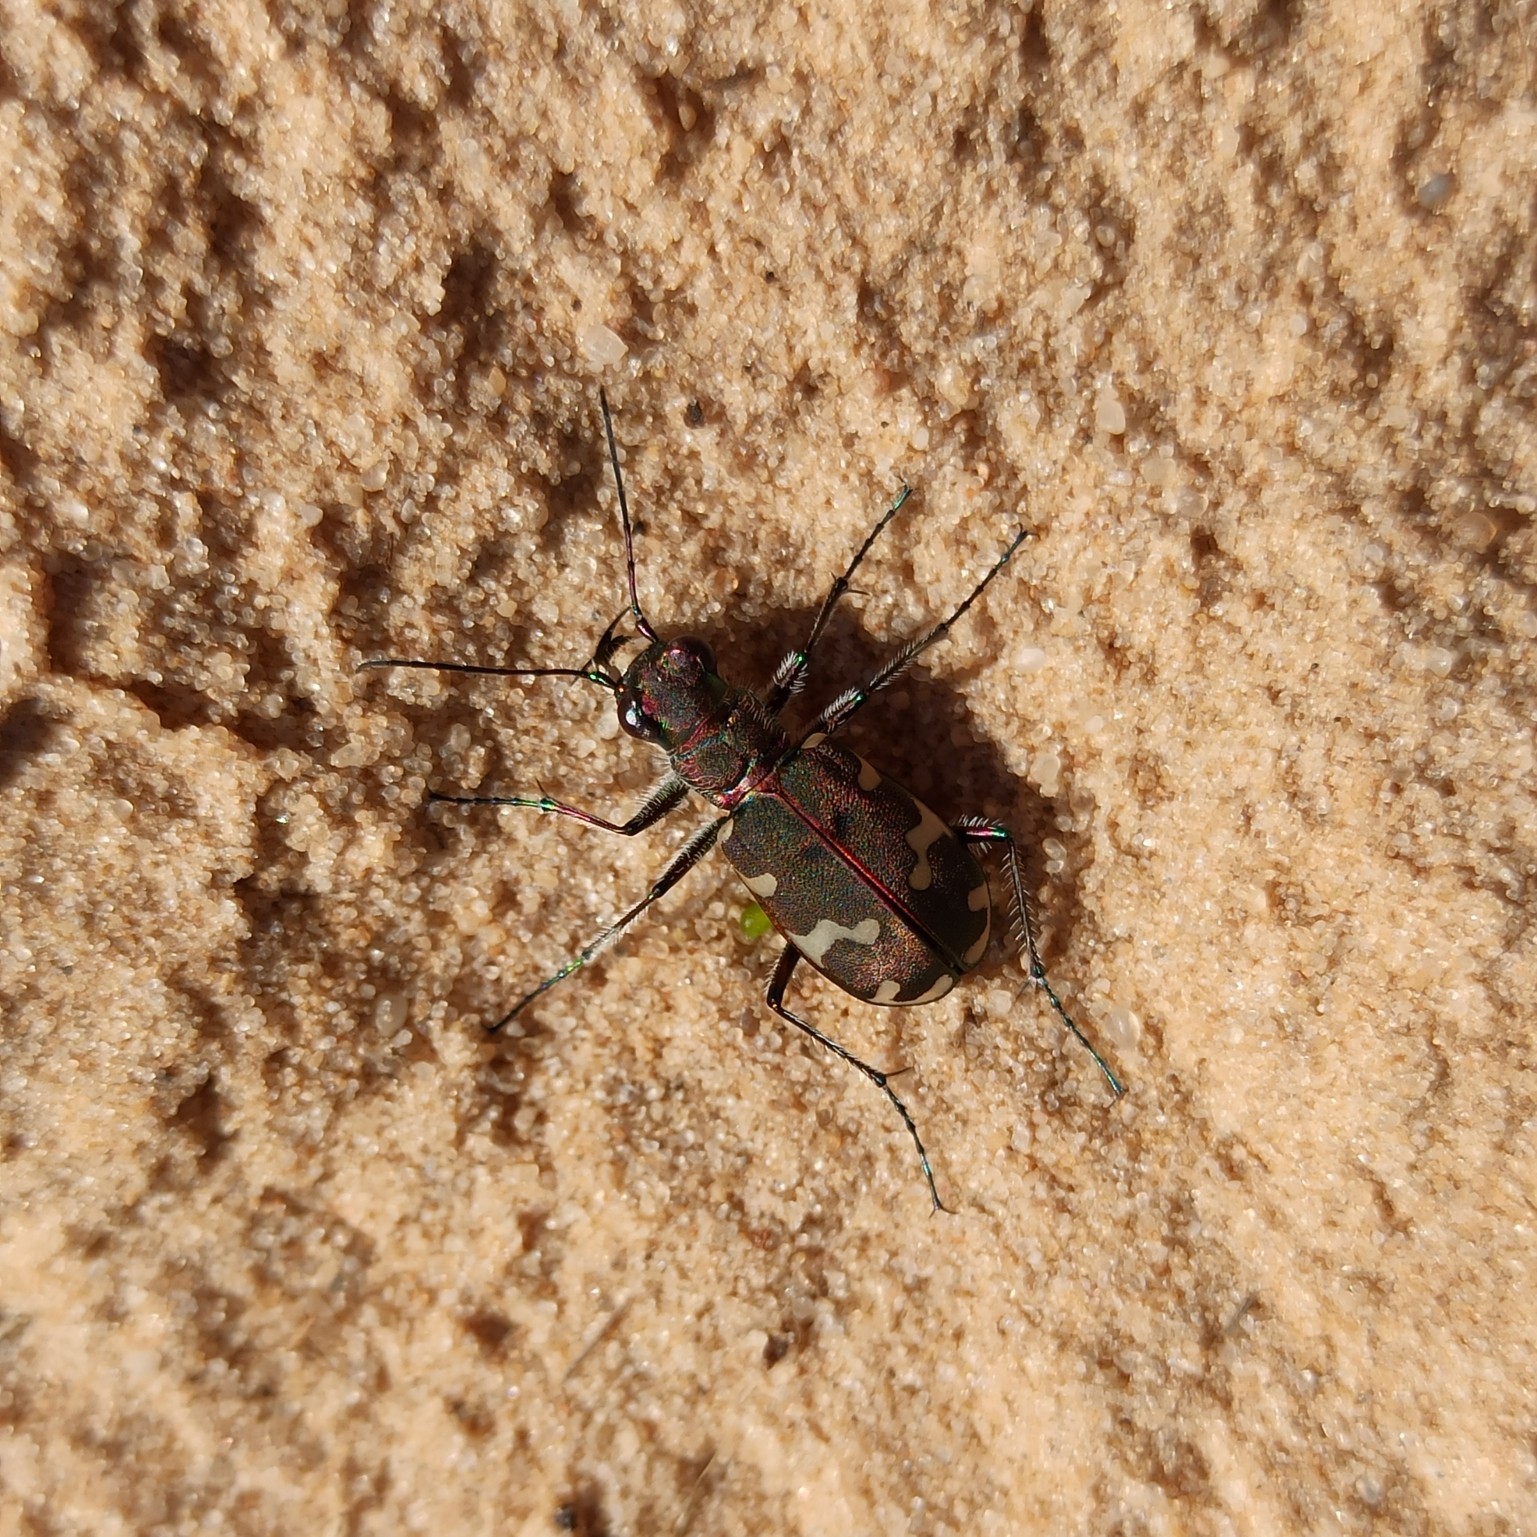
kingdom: Animalia
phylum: Arthropoda
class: Insecta
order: Coleoptera
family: Carabidae
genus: Cicindela
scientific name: Cicindela hybrida
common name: Northern dune tiger beetle
